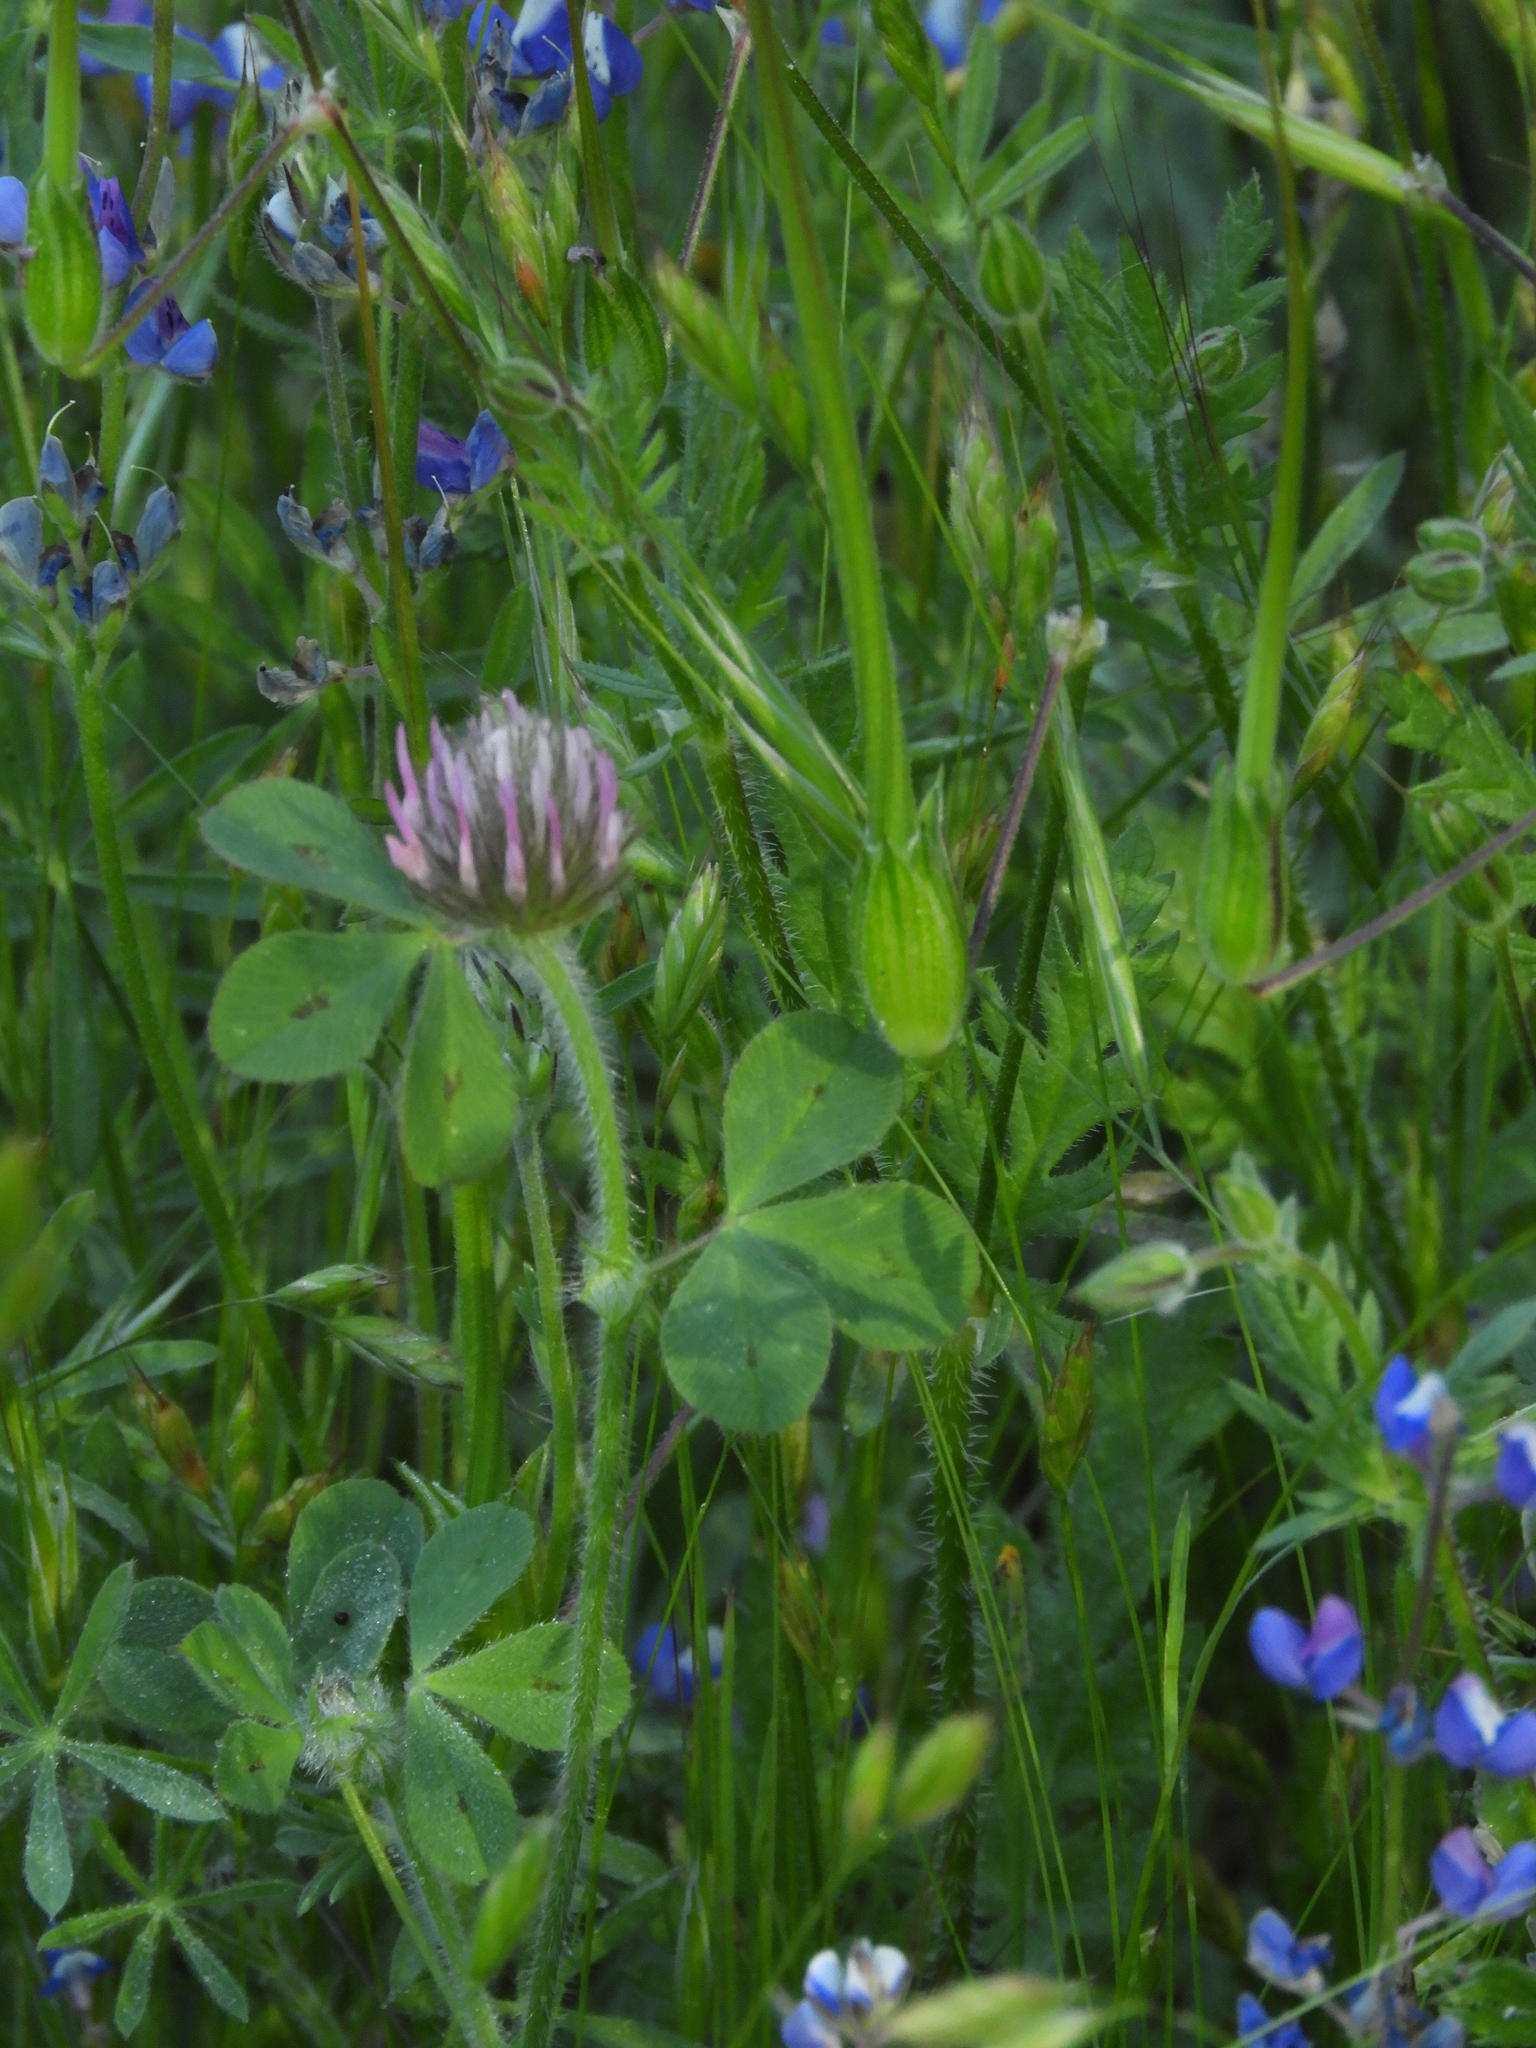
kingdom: Plantae
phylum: Tracheophyta
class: Magnoliopsida
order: Fabales
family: Fabaceae
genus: Trifolium
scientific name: Trifolium hirtum
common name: Rose clover
